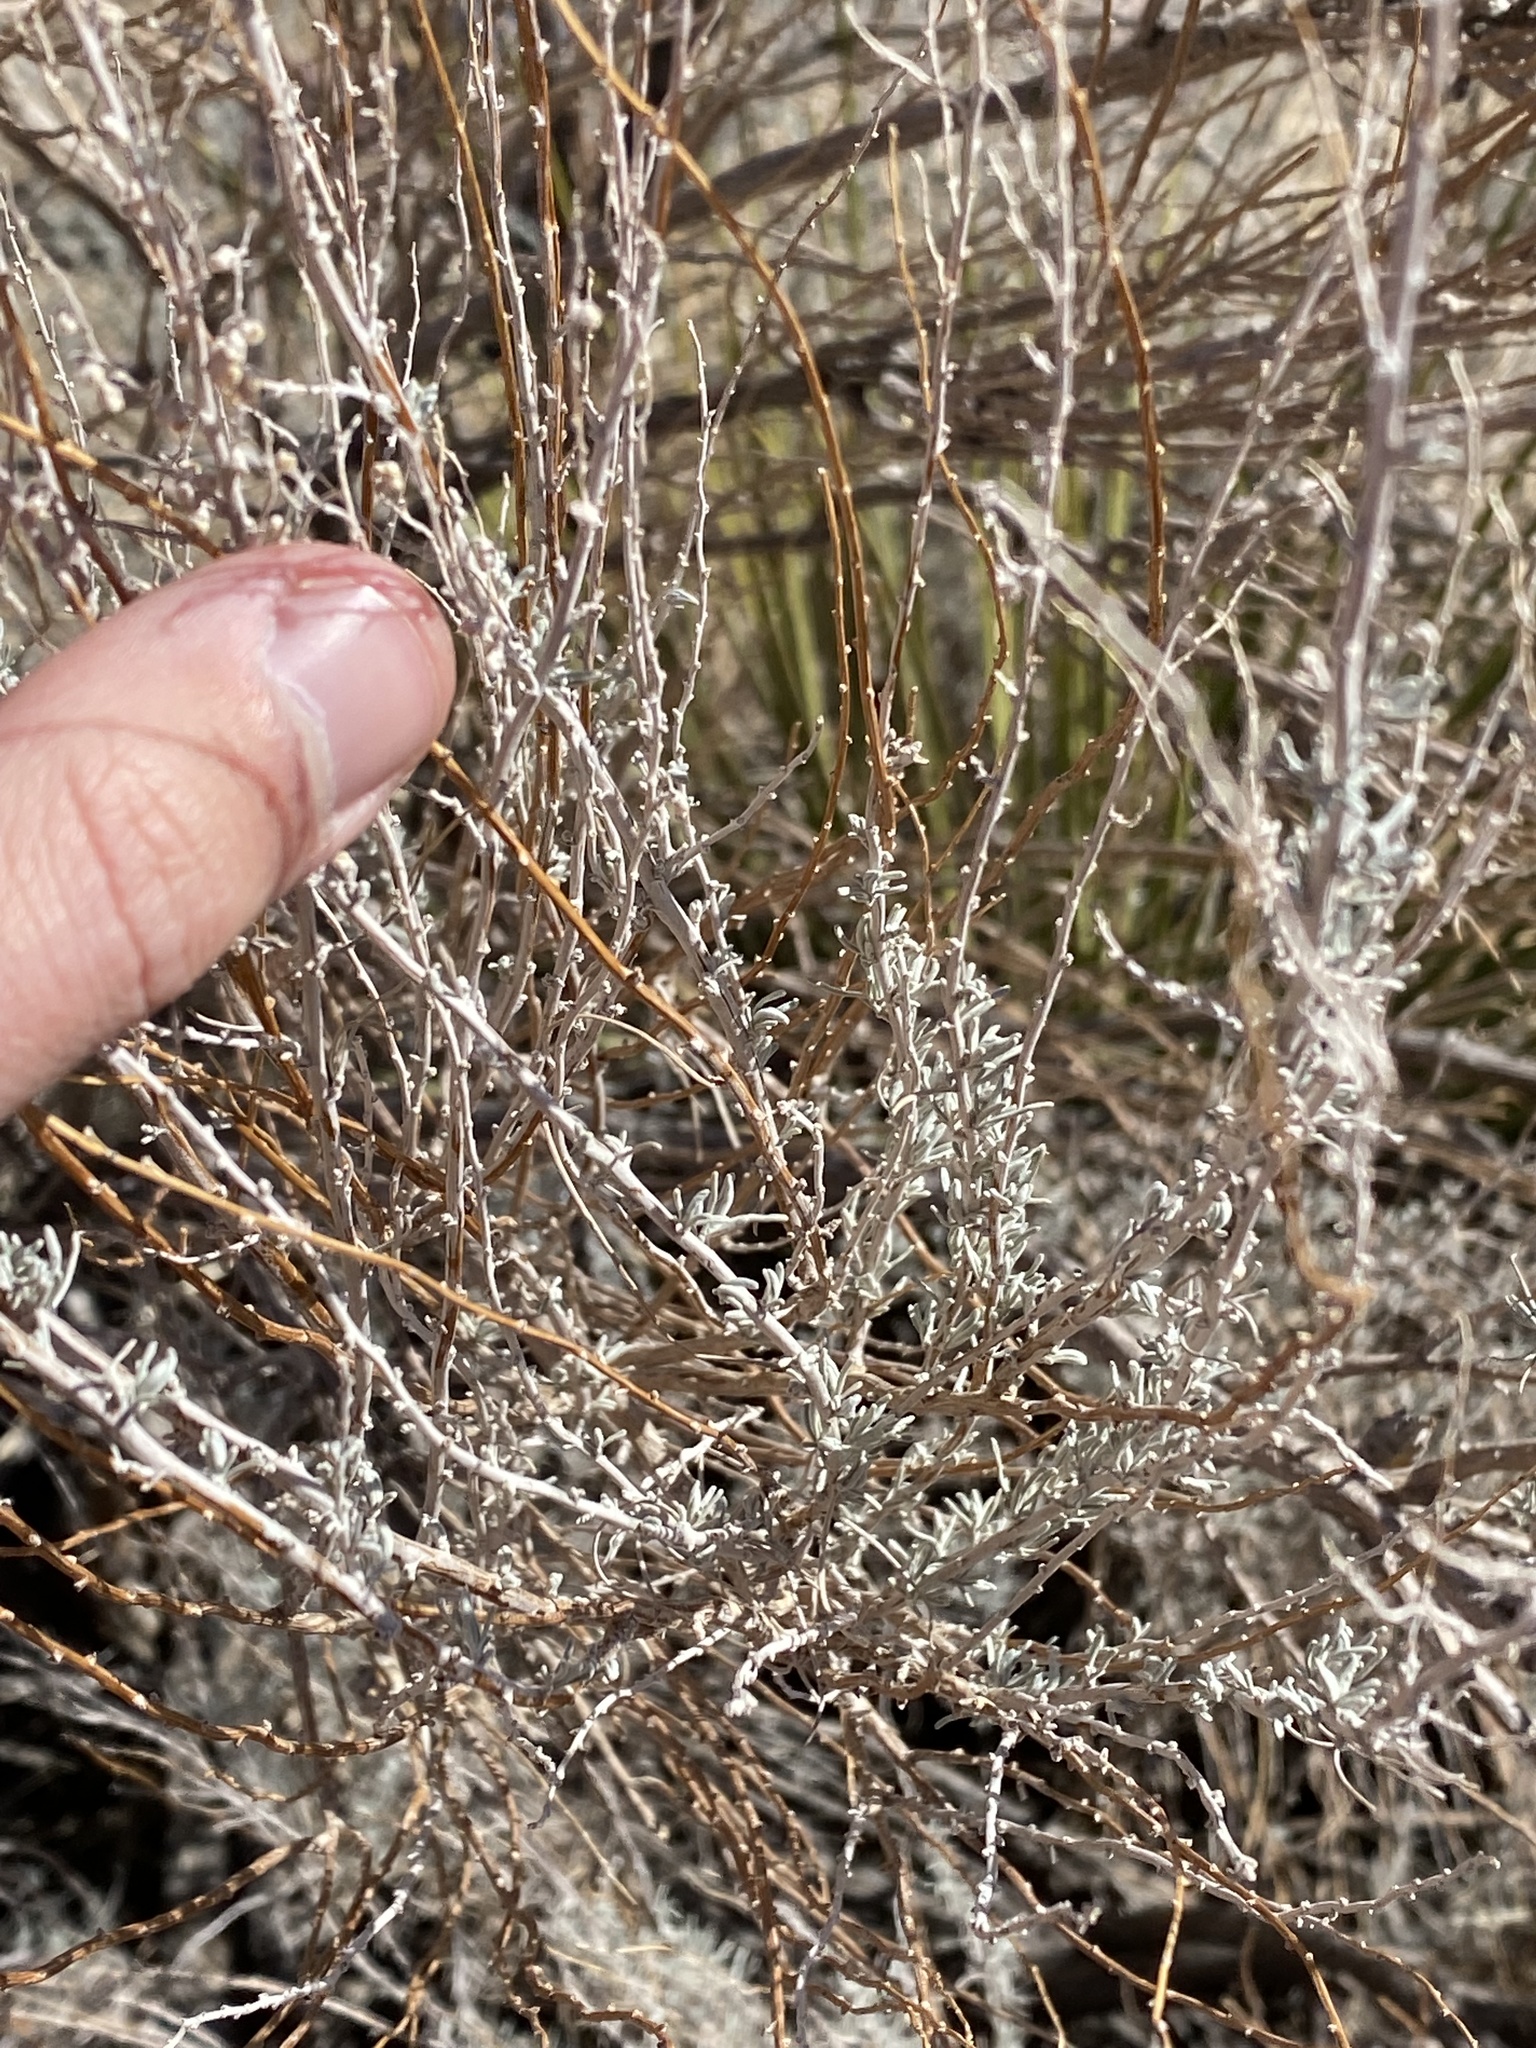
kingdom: Animalia
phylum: Arthropoda
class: Insecta
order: Diptera
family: Tephritidae
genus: Eutreta
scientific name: Eutreta diana
